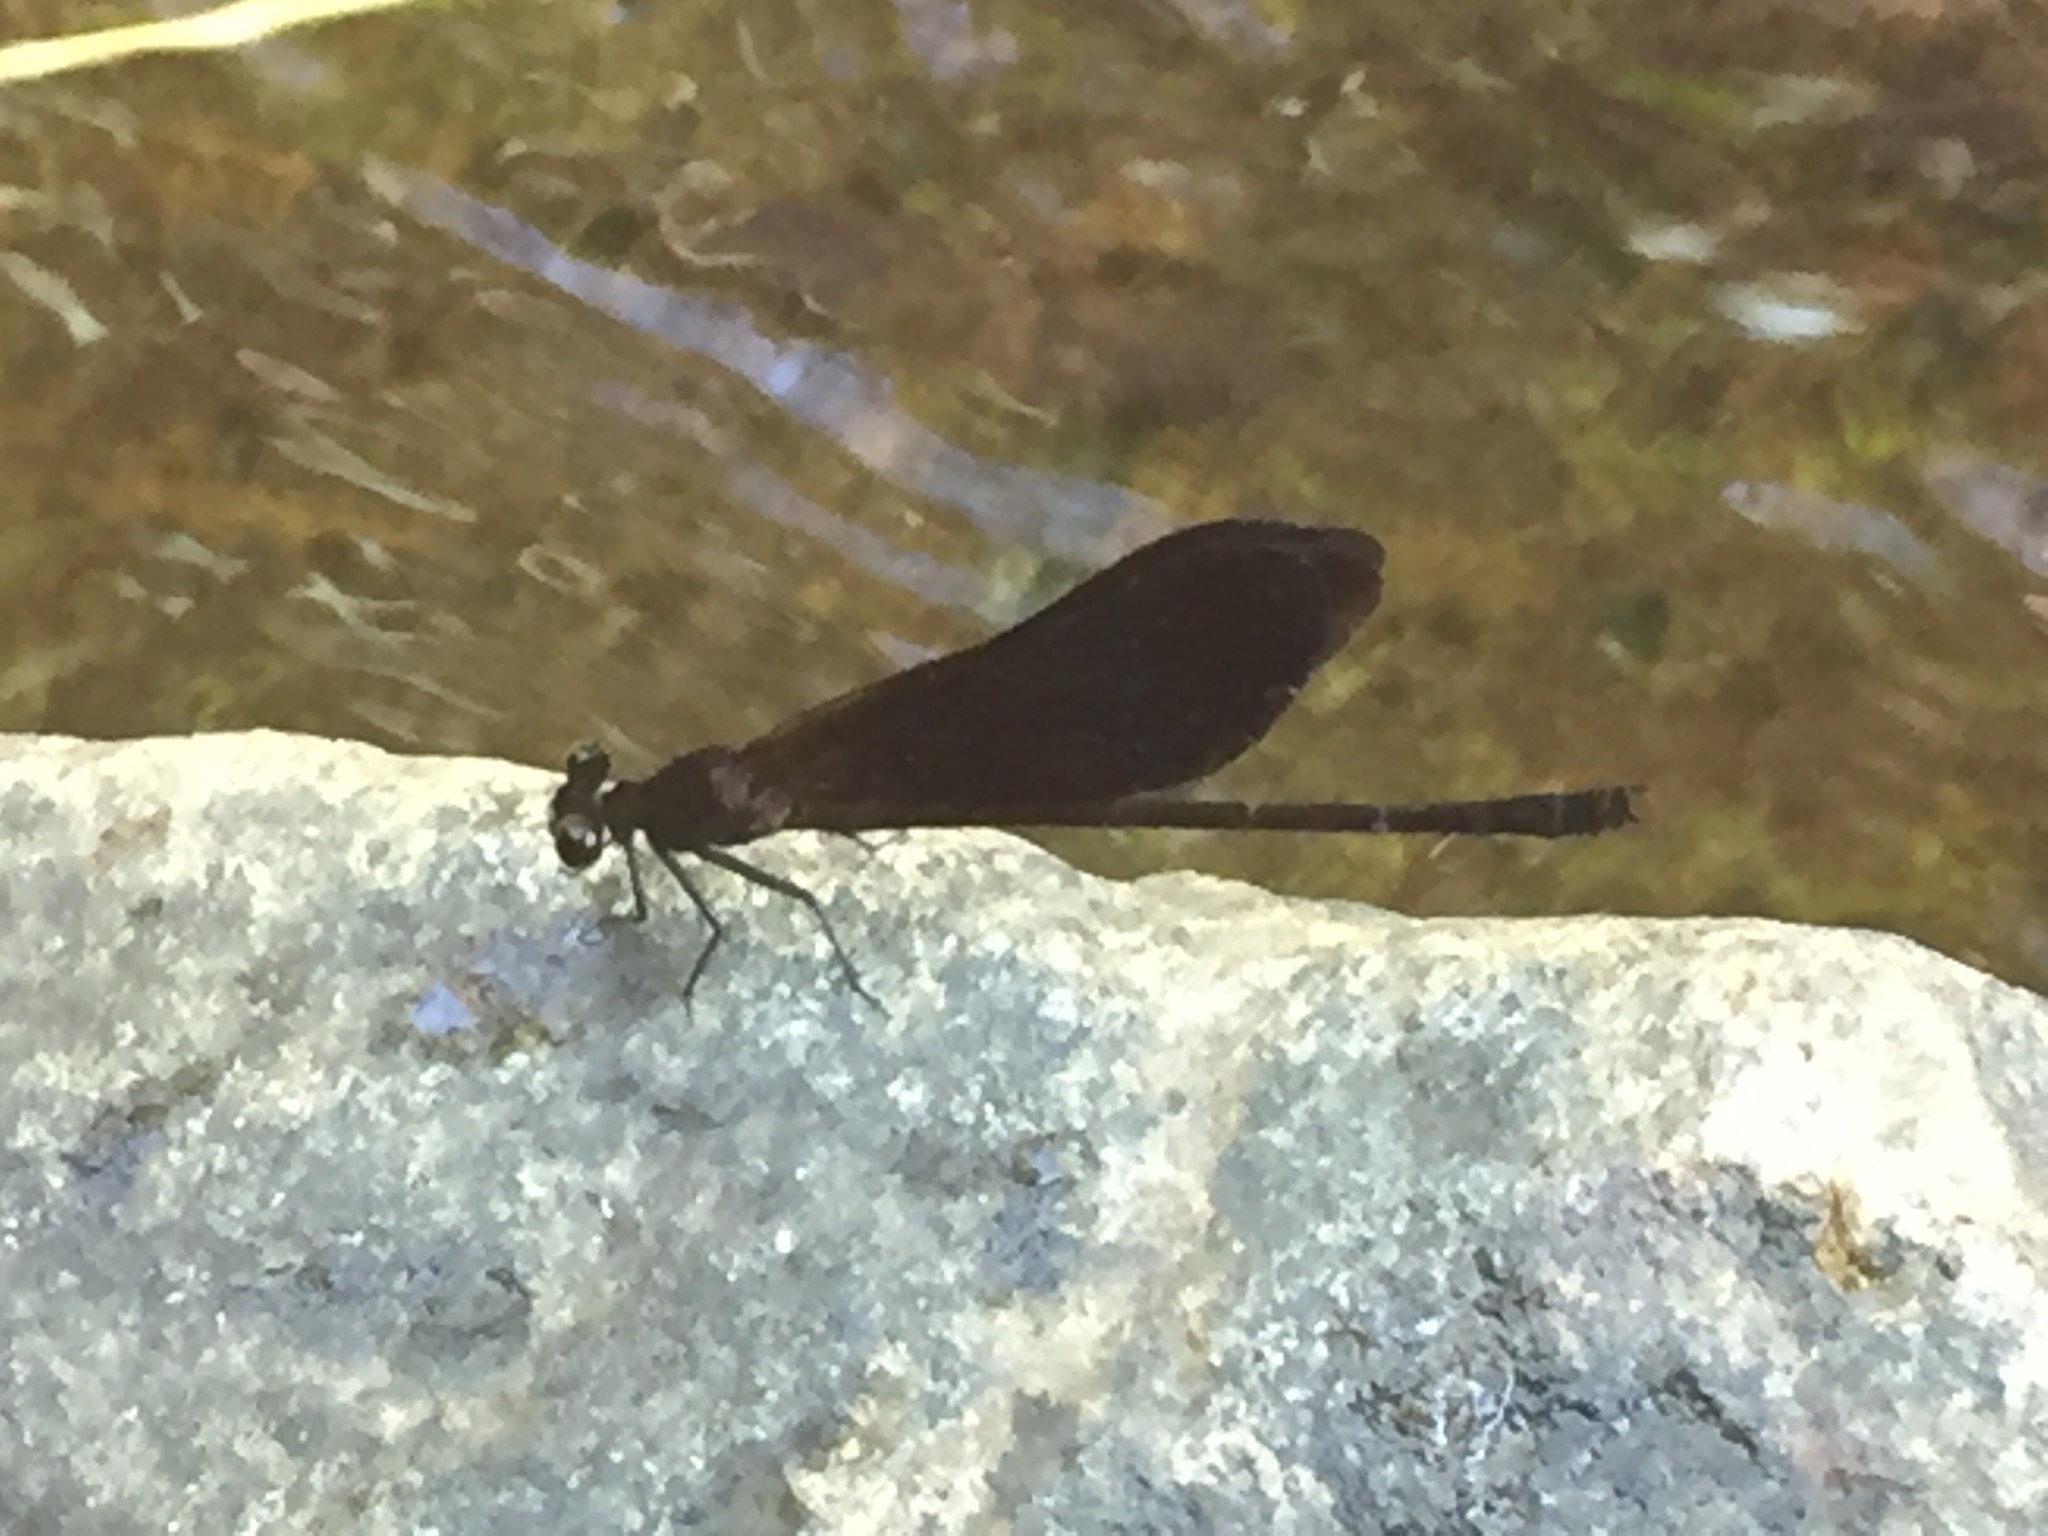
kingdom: Animalia
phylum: Arthropoda
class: Insecta
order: Odonata
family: Euphaeidae
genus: Euphaea
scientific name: Euphaea splendens
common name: Shining gossamerwing
